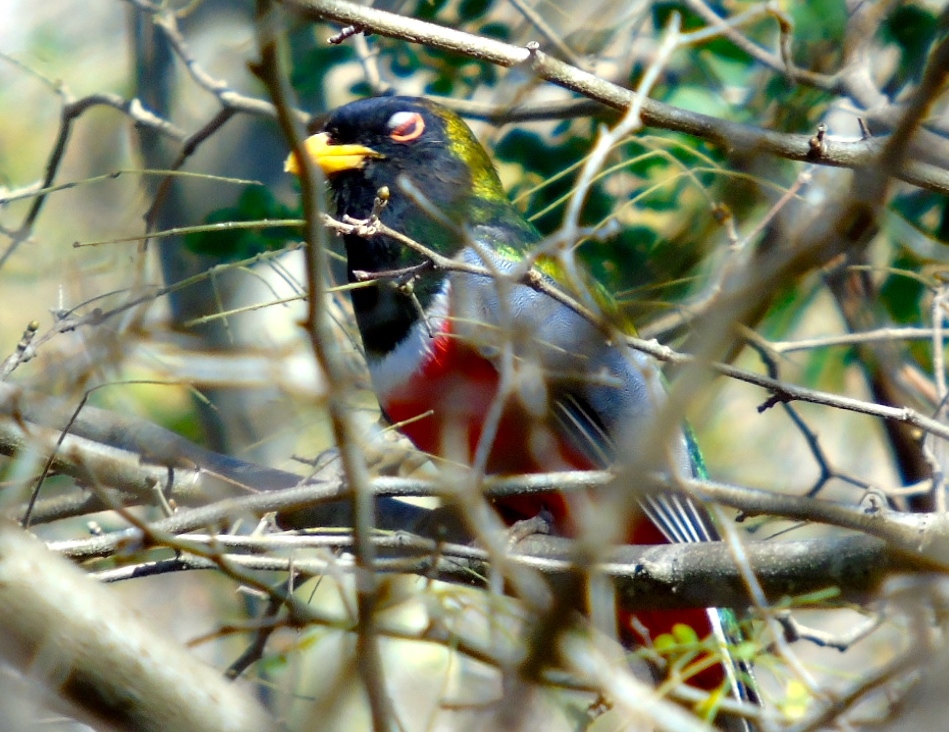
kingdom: Animalia
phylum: Chordata
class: Aves
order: Trogoniformes
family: Trogonidae
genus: Trogon
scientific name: Trogon elegans
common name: Elegant trogon
